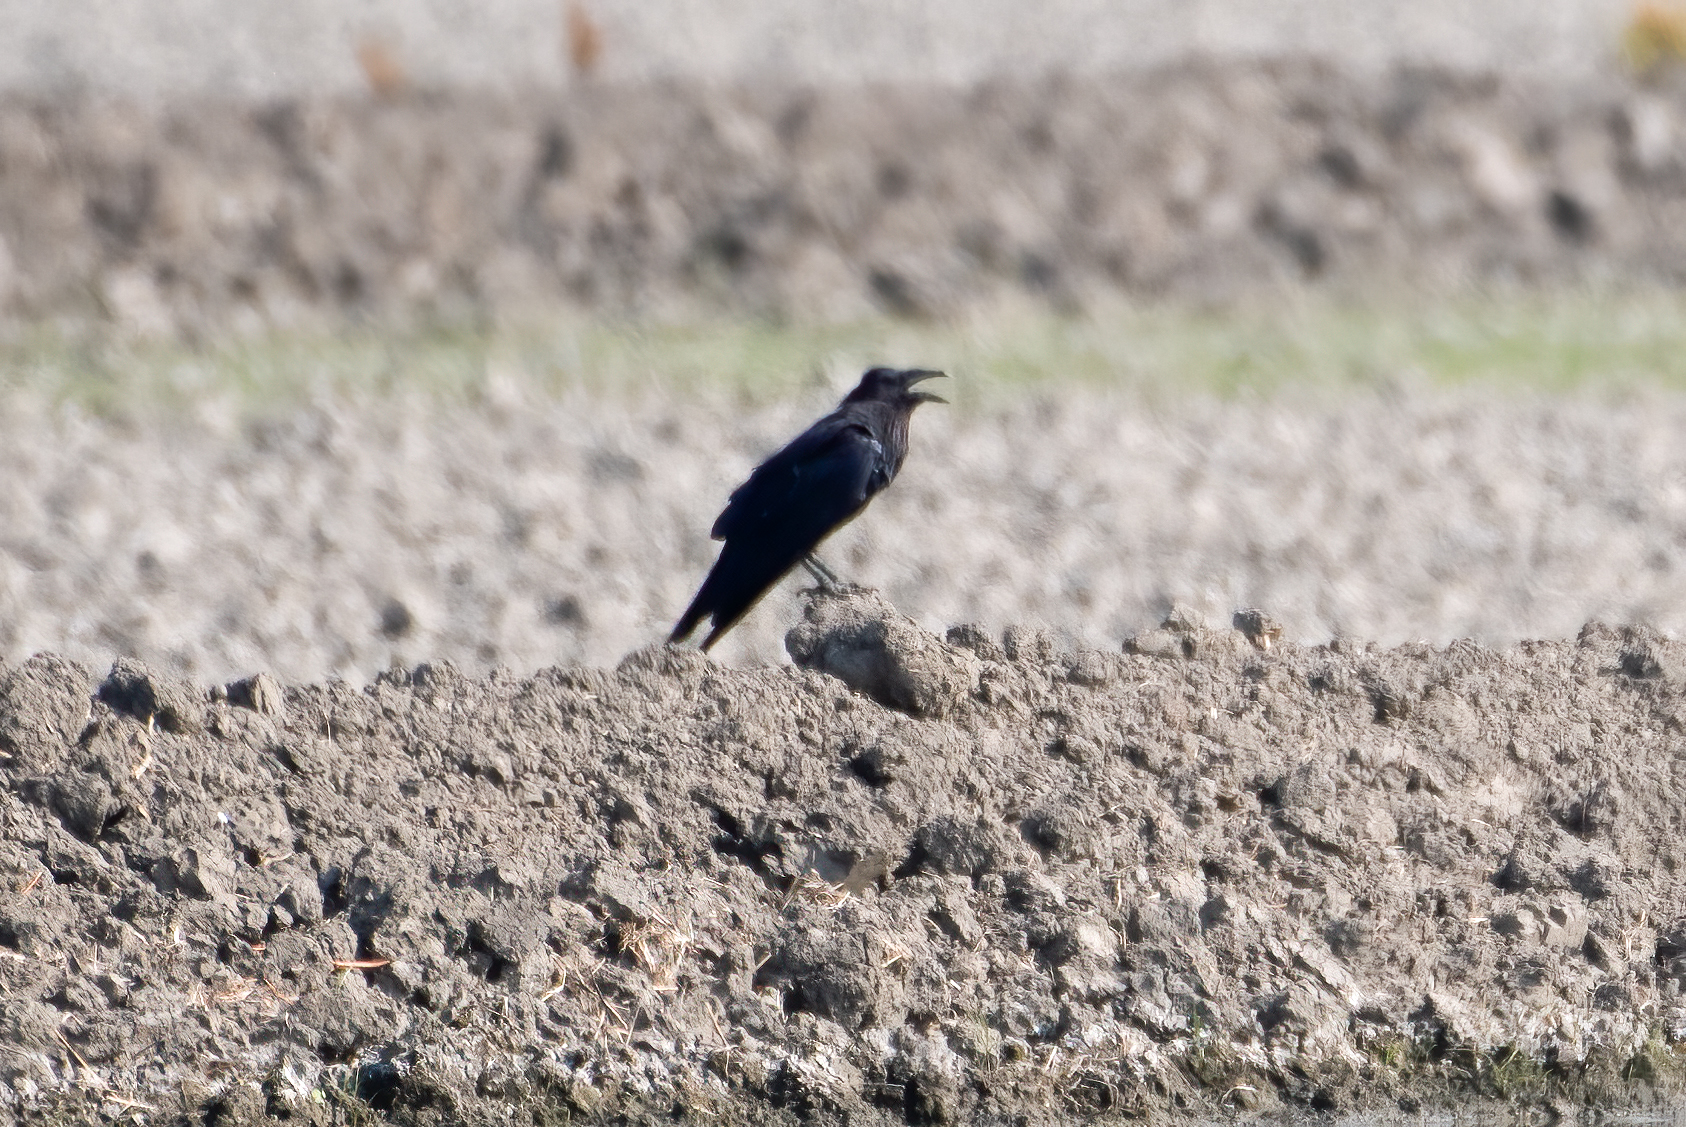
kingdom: Animalia
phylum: Chordata
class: Aves
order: Passeriformes
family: Corvidae
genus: Corvus
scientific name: Corvus corax
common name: Common raven
